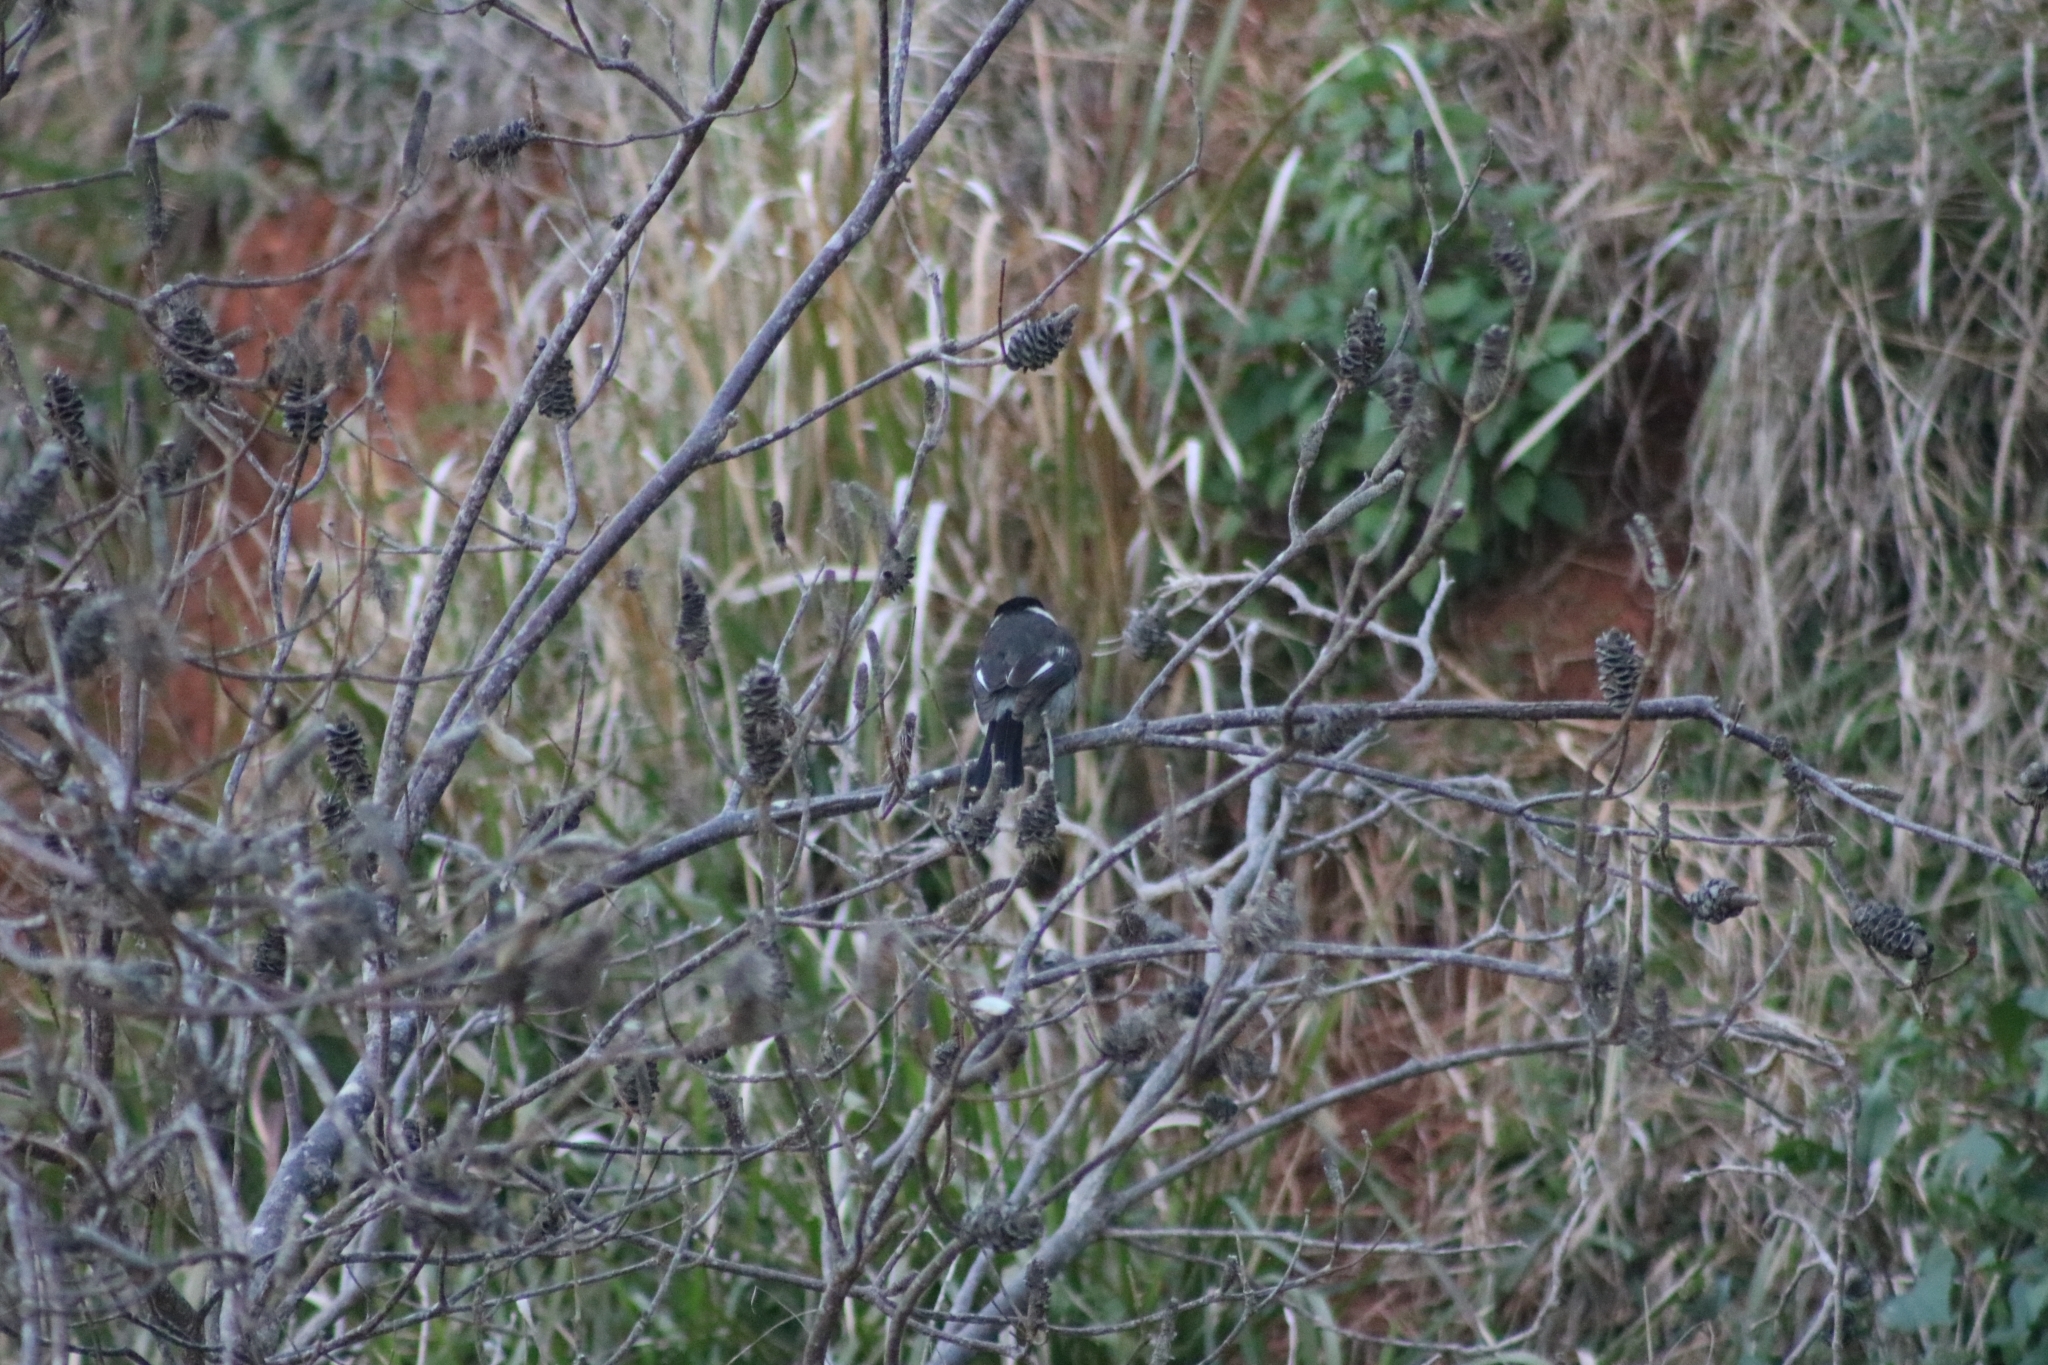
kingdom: Animalia
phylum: Chordata
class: Aves
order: Passeriformes
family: Cracticidae
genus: Cracticus
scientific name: Cracticus torquatus
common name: Grey butcherbird
